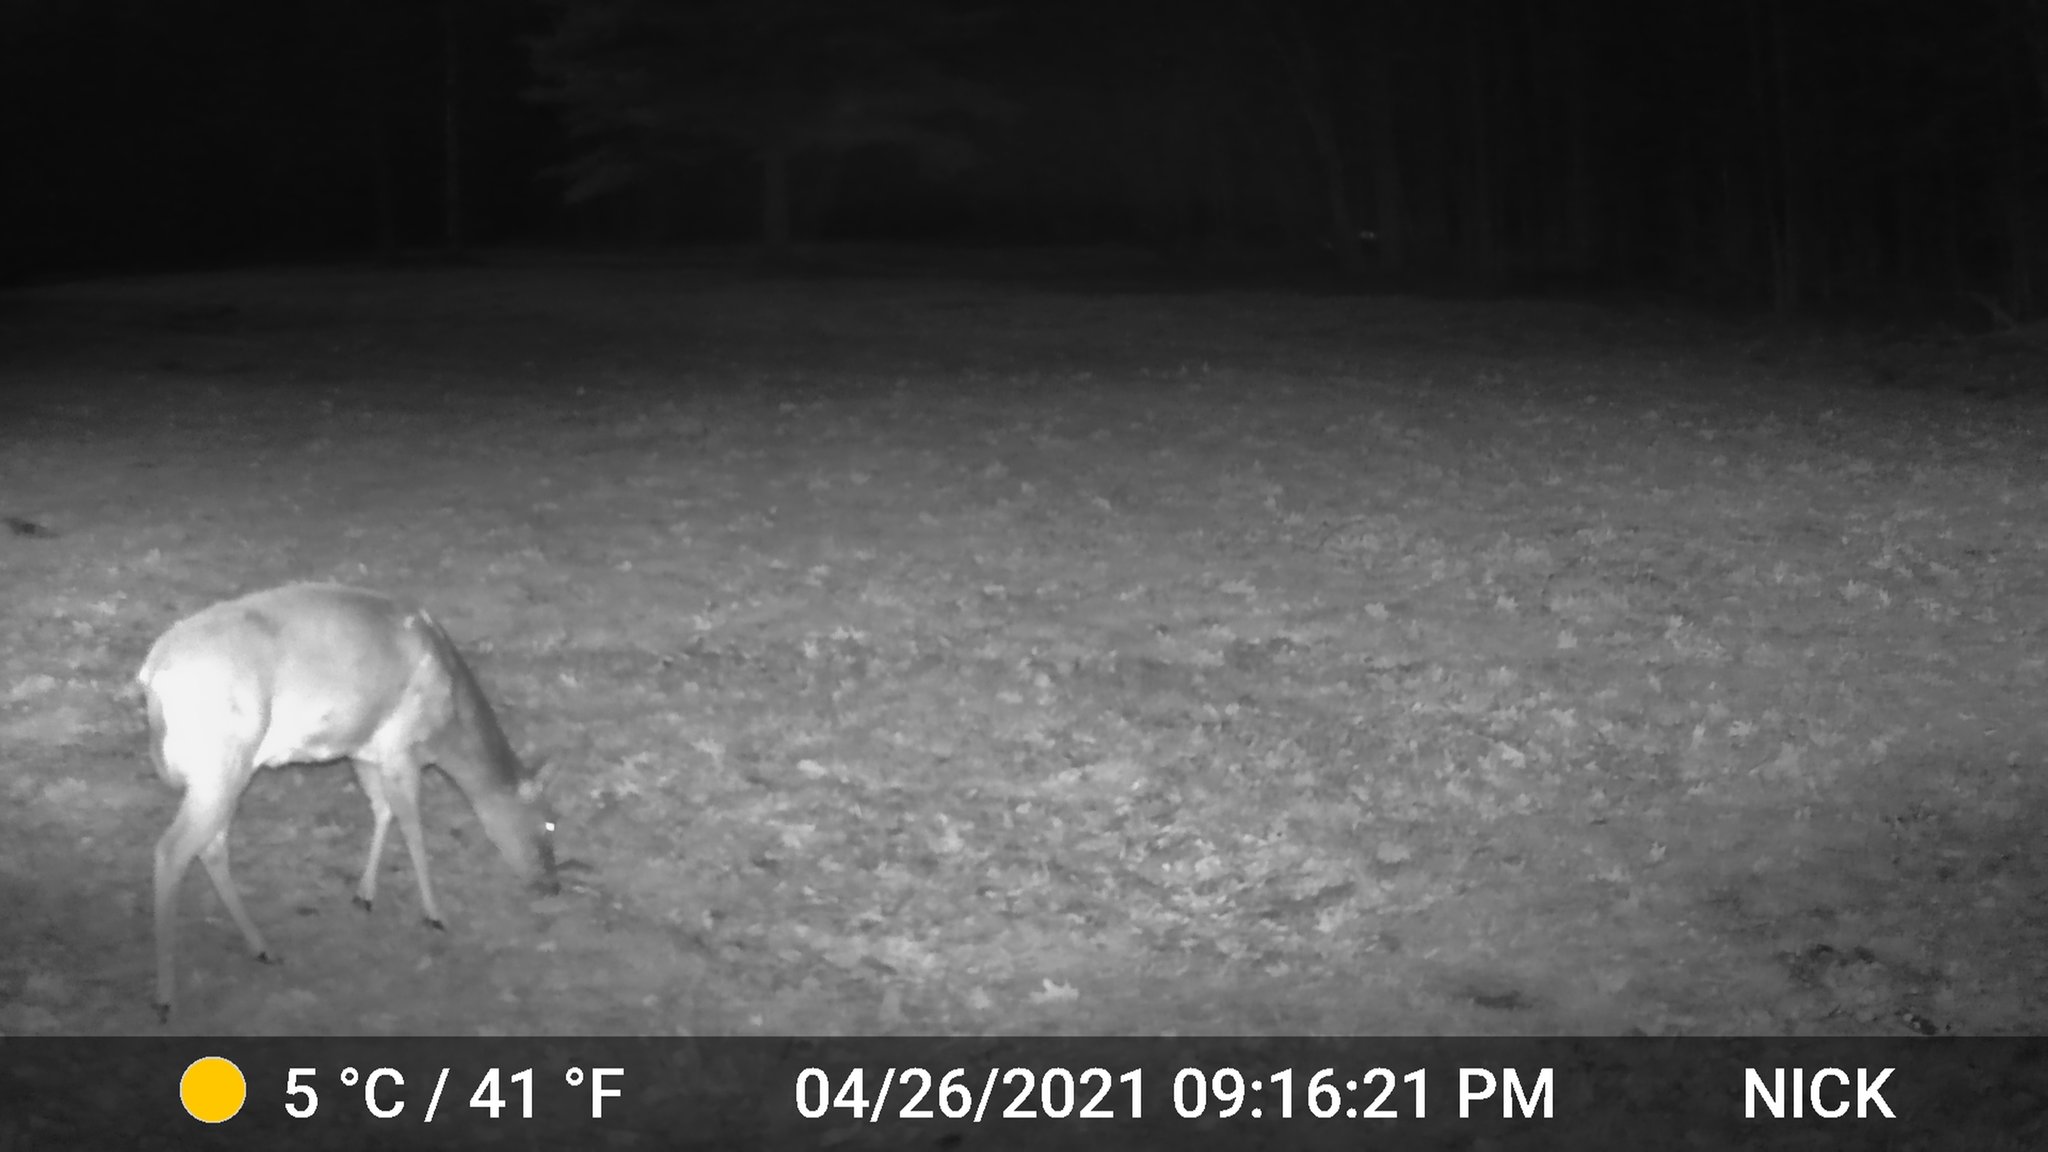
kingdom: Animalia
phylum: Chordata
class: Mammalia
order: Artiodactyla
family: Cervidae
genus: Odocoileus
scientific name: Odocoileus virginianus
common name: White-tailed deer
